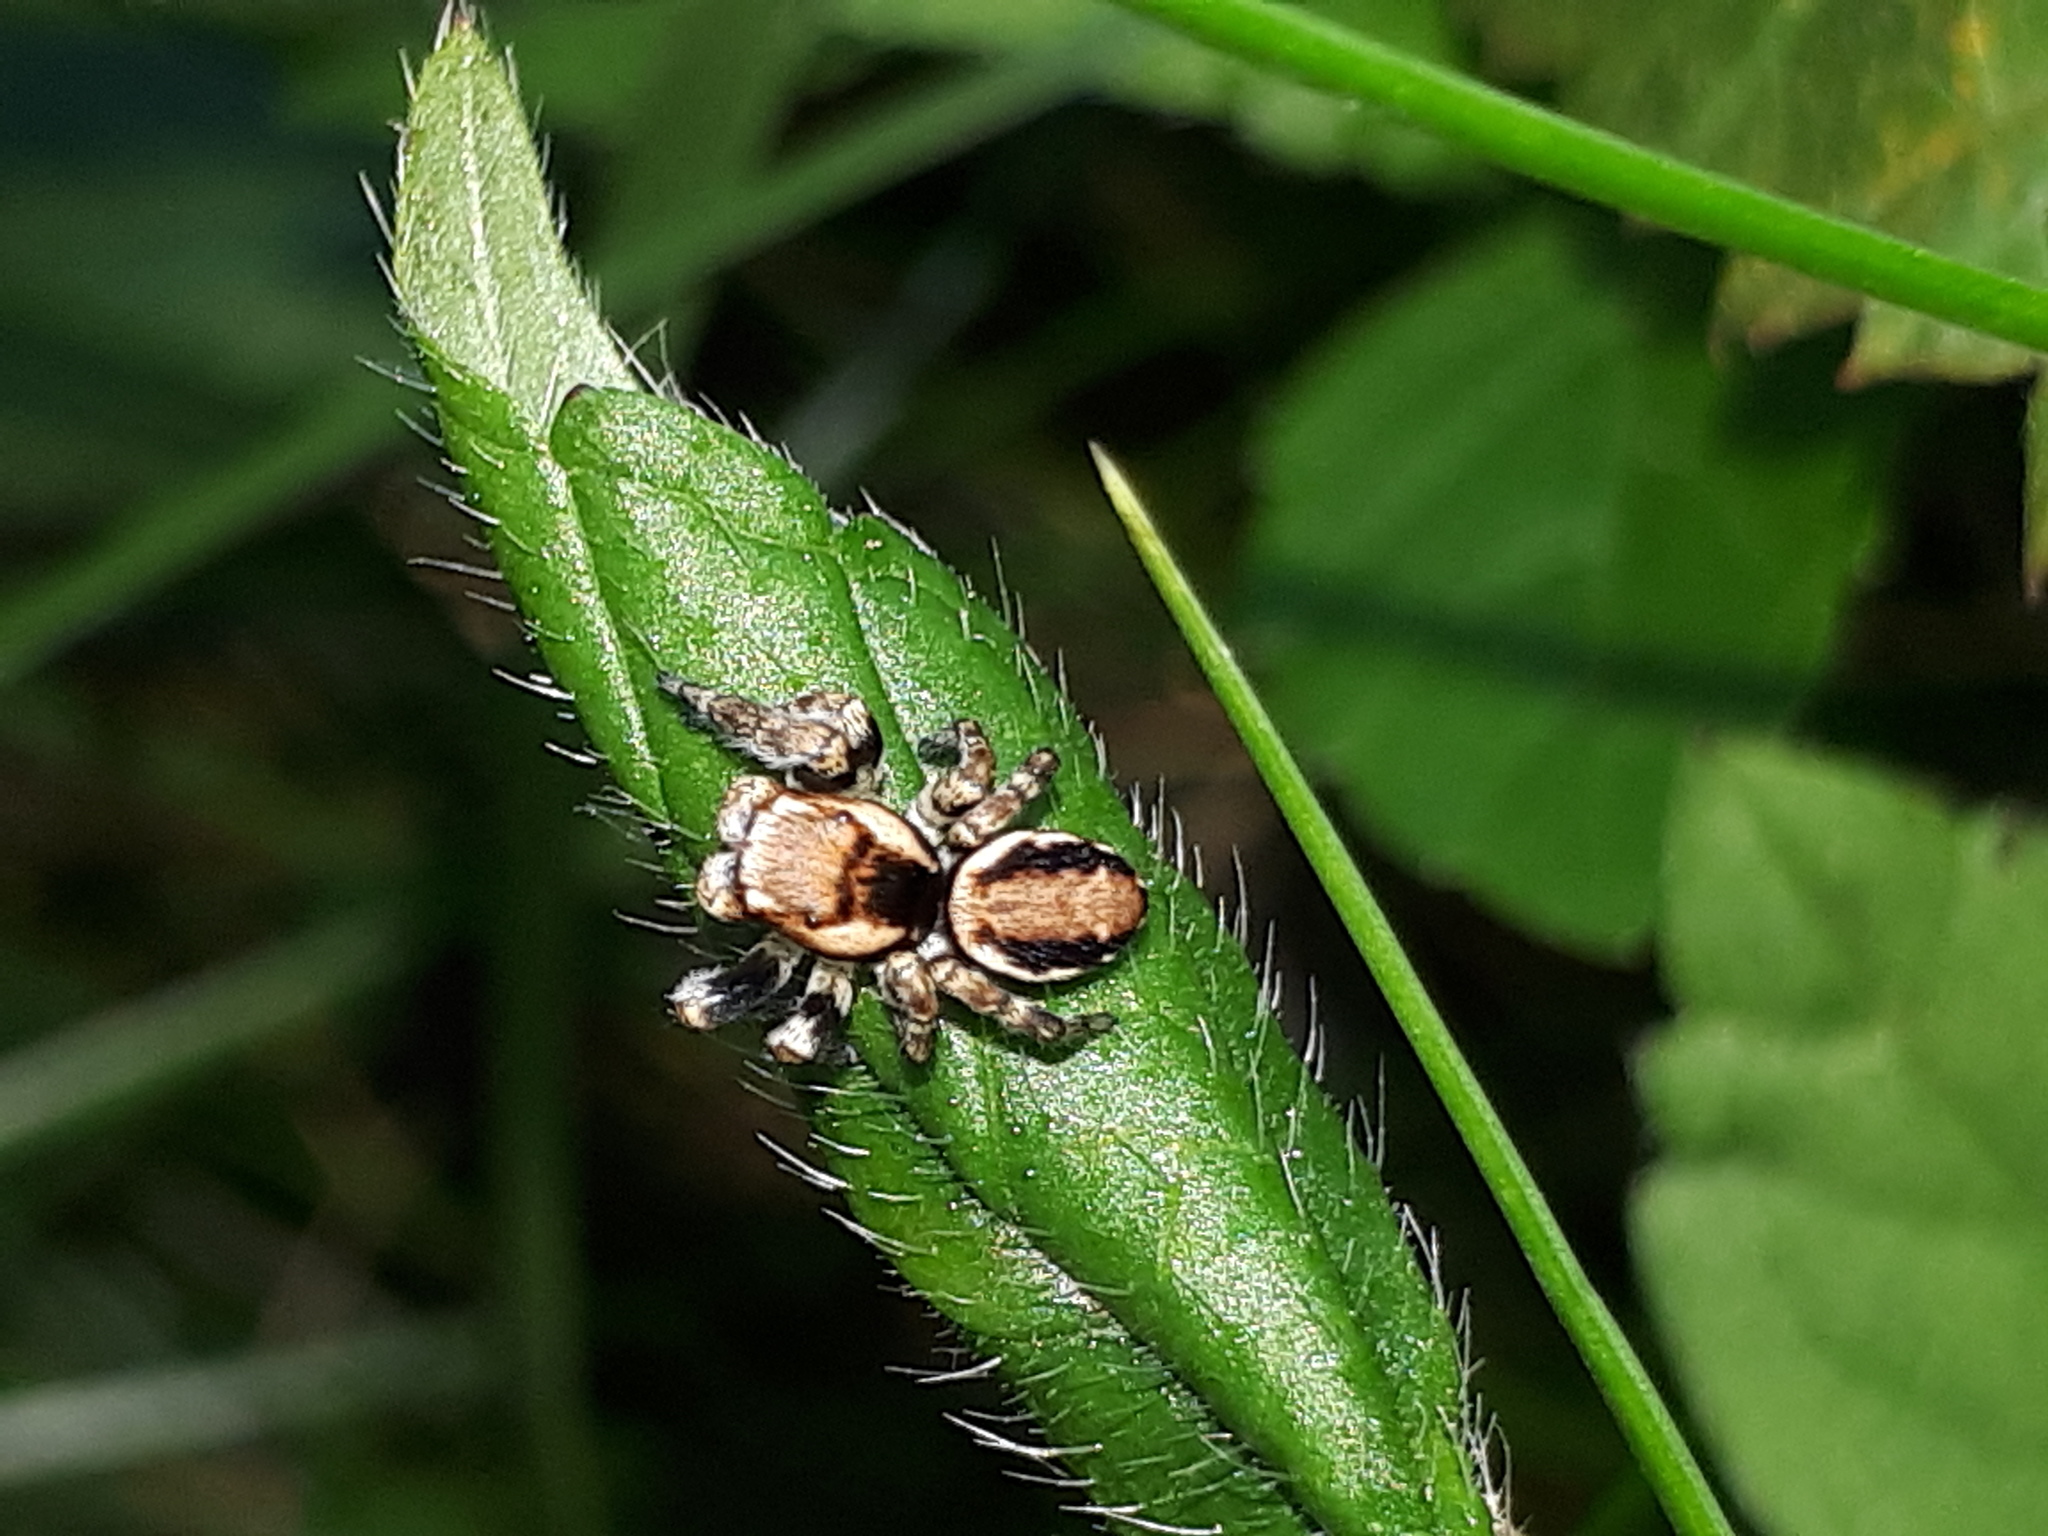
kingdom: Animalia
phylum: Arthropoda
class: Arachnida
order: Araneae
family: Salticidae
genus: Evarcha
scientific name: Evarcha falcata
